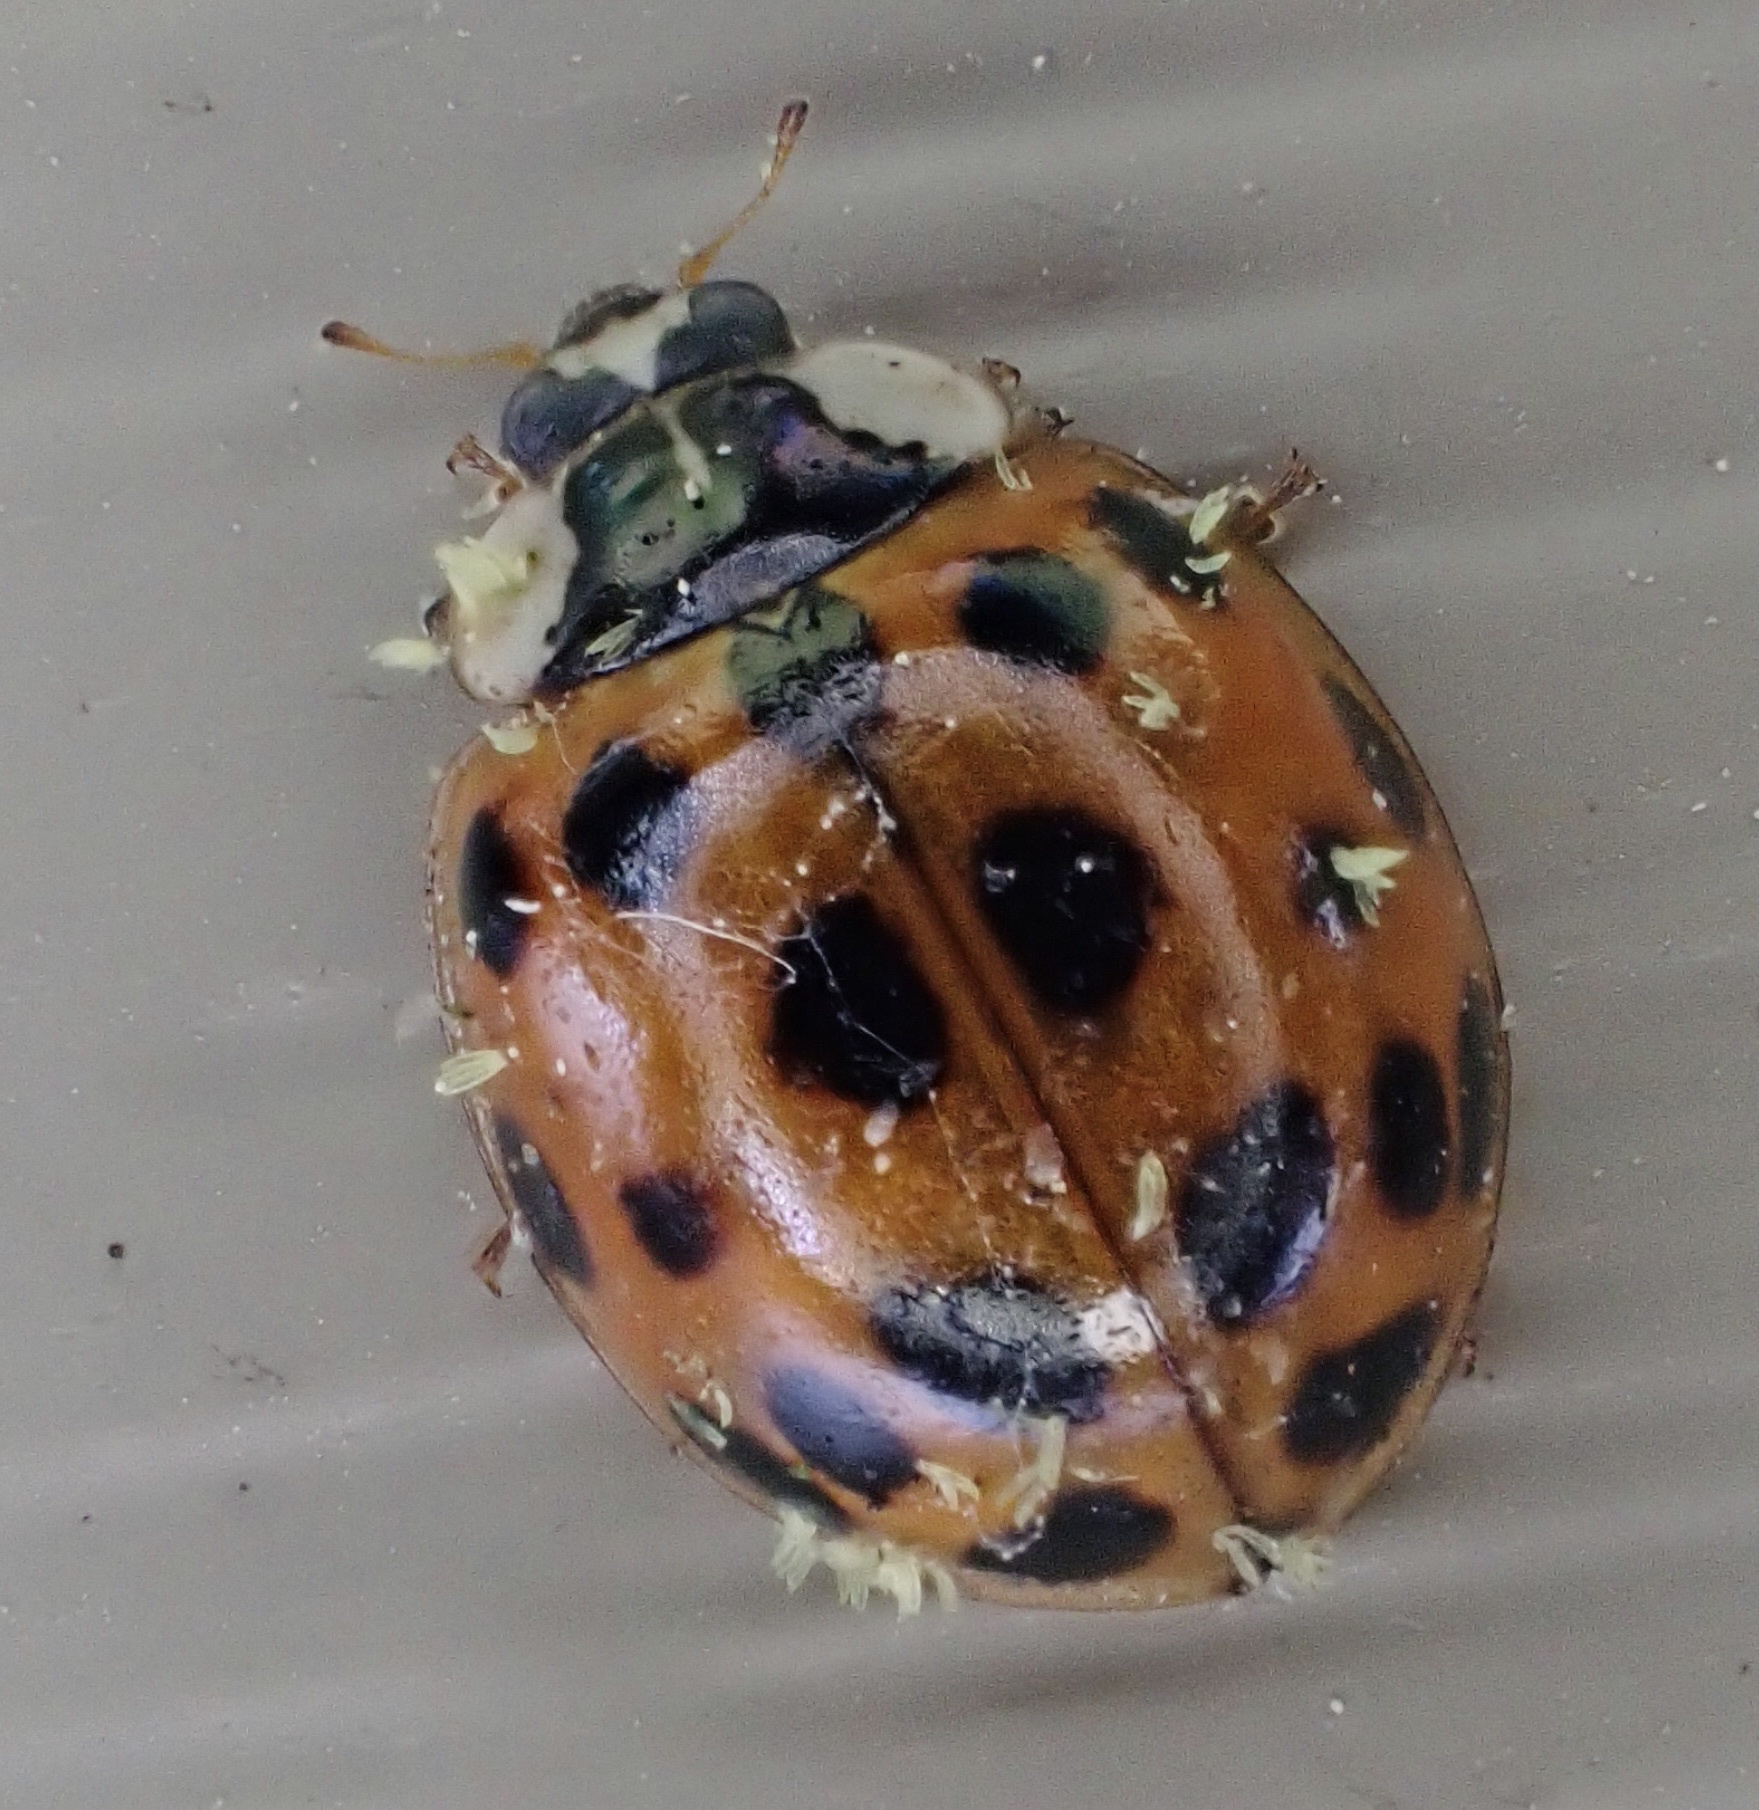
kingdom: Animalia
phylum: Arthropoda
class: Insecta
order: Coleoptera
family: Coccinellidae
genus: Harmonia
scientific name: Harmonia axyridis
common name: Harlequin ladybird
